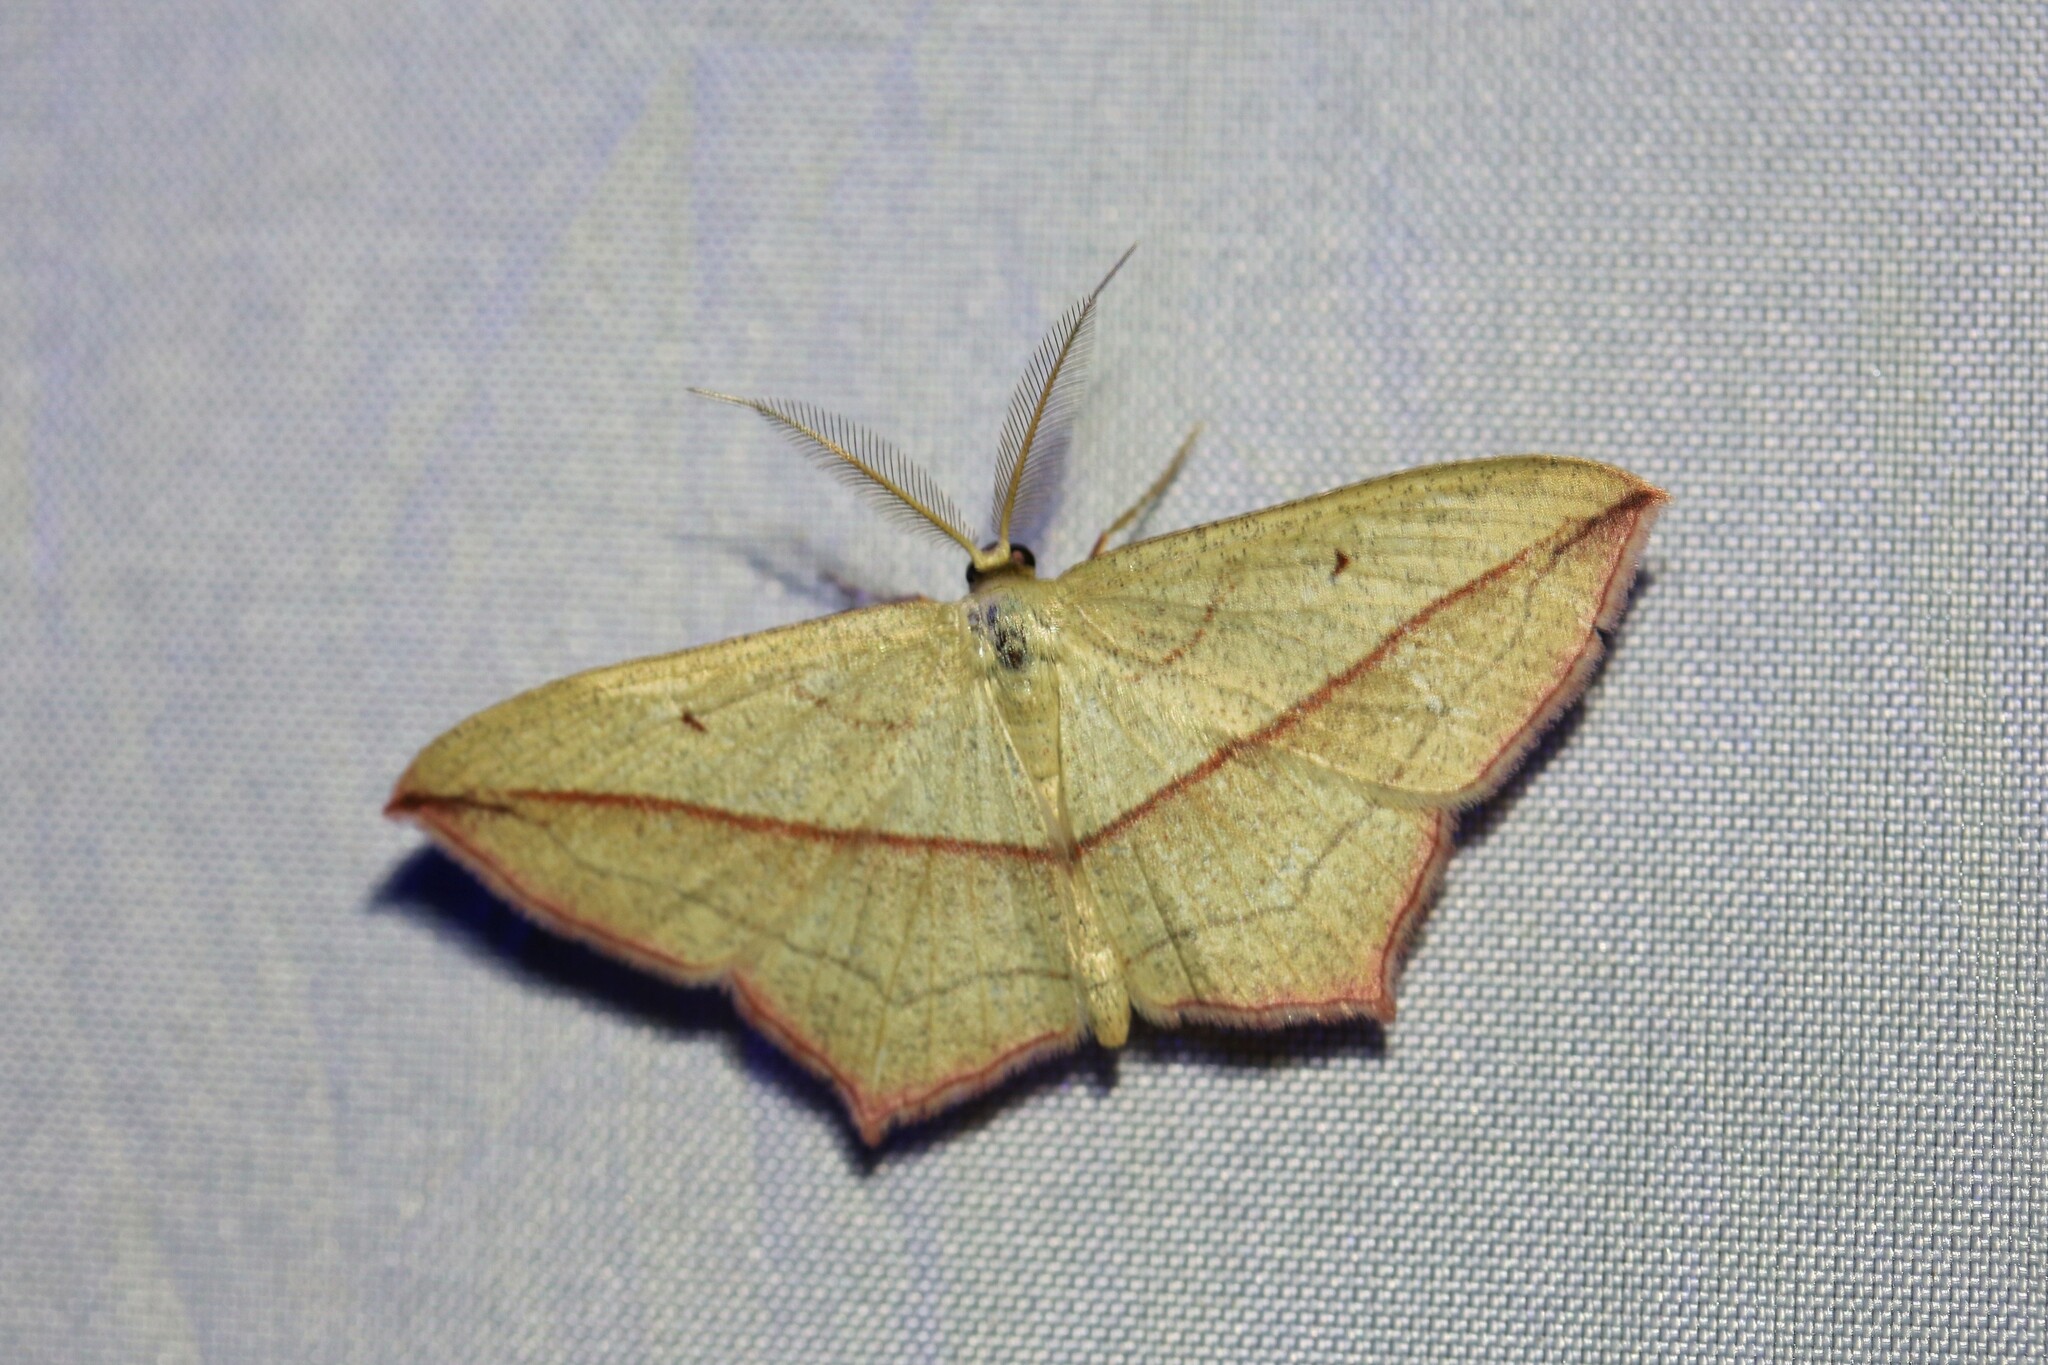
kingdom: Animalia
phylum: Arthropoda
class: Insecta
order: Lepidoptera
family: Geometridae
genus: Timandra
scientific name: Timandra comae
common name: Blood-vein
